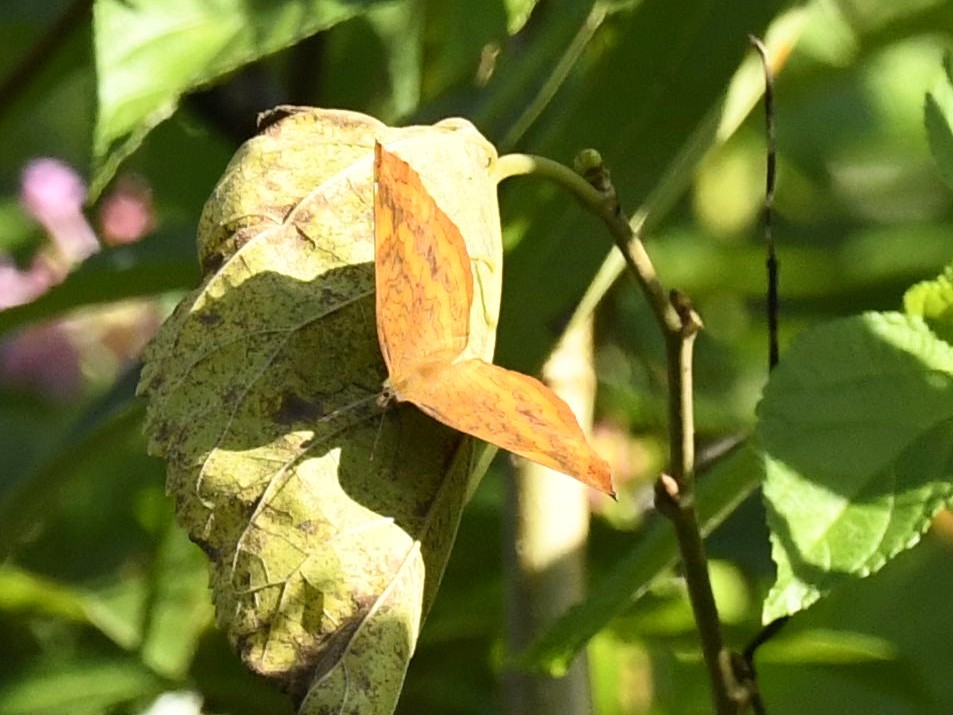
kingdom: Animalia
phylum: Arthropoda
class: Insecta
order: Lepidoptera
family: Nymphalidae
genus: Ariadne
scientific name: Ariadne merione
